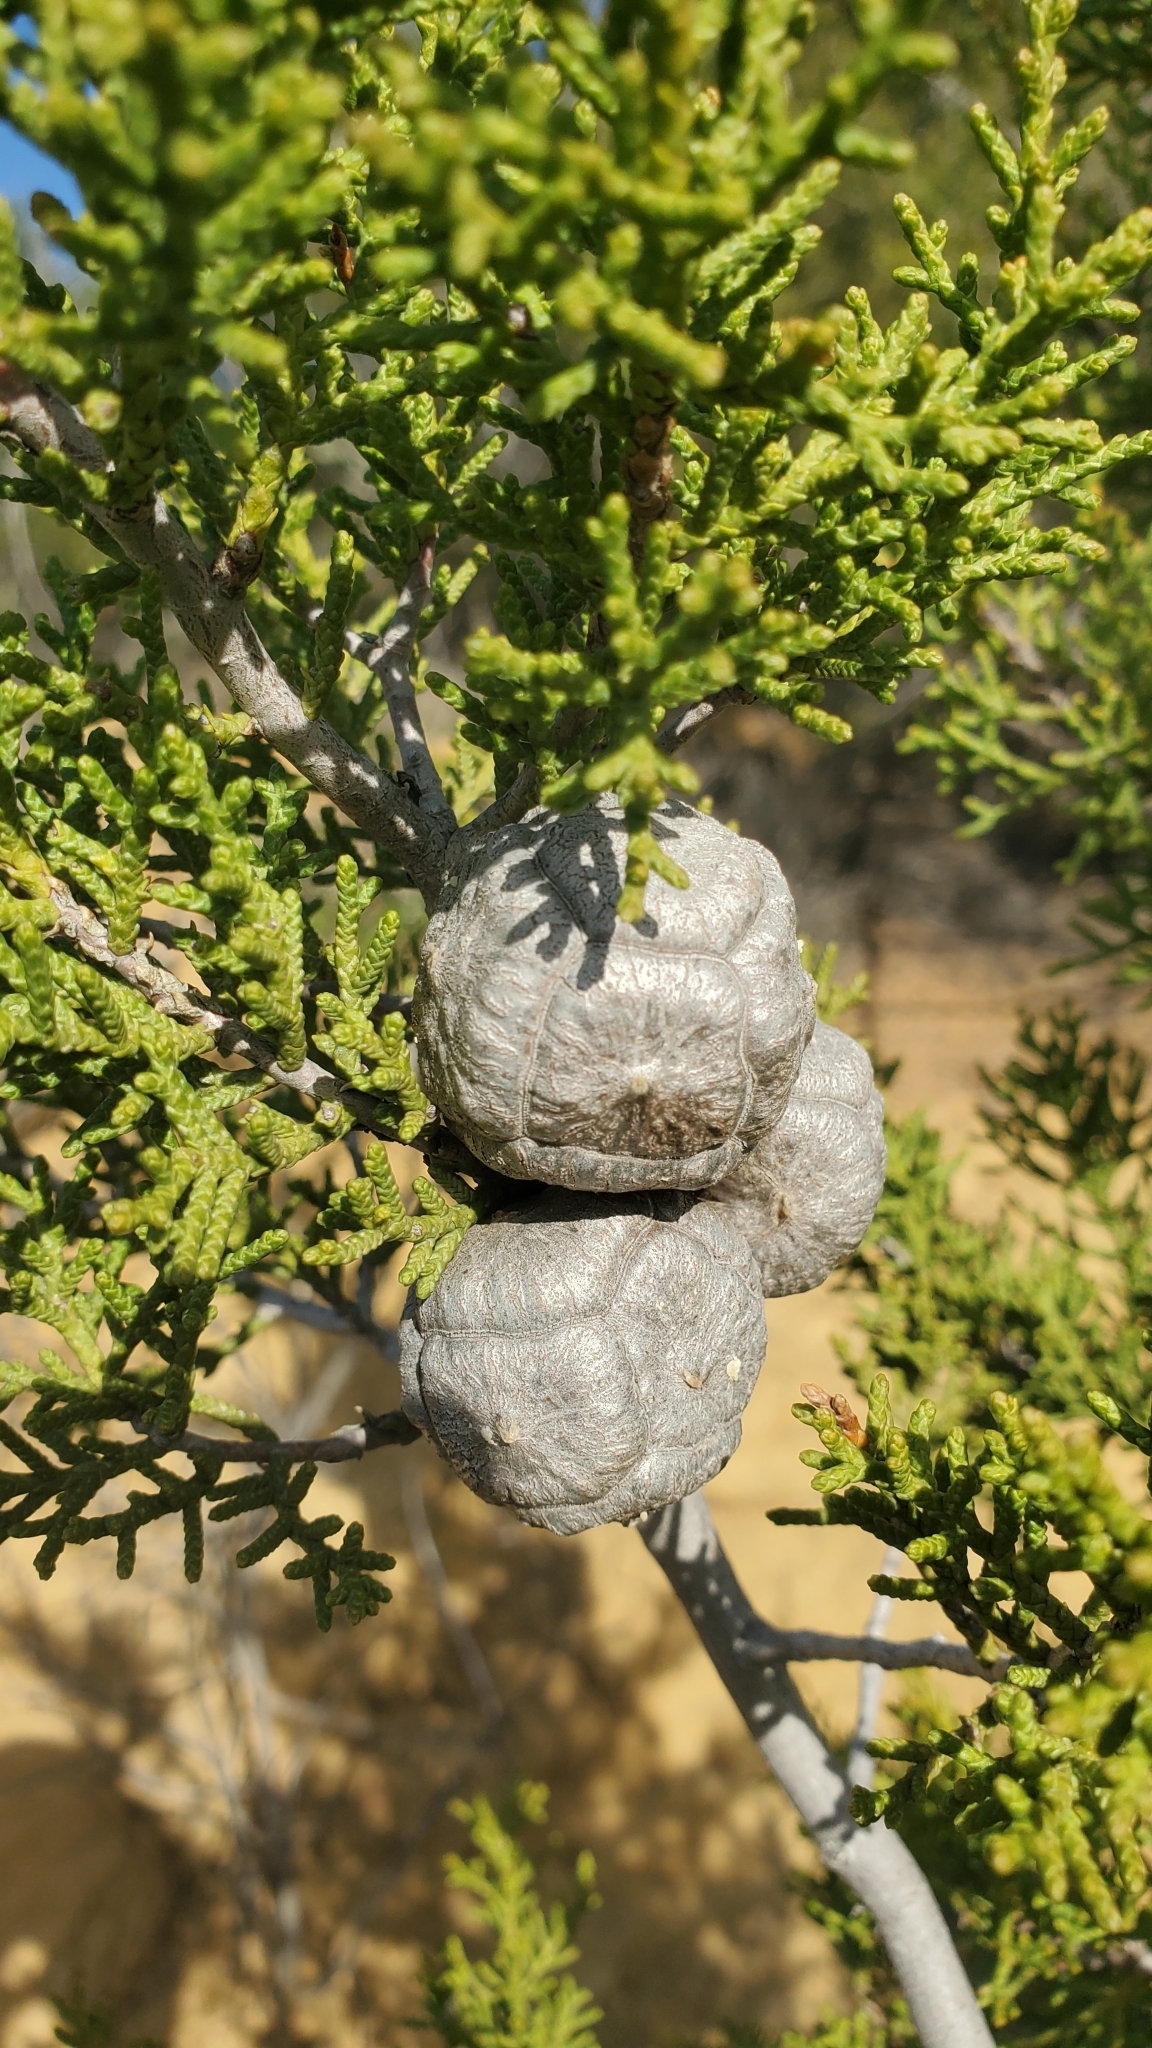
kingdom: Plantae
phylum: Tracheophyta
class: Pinopsida
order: Pinales
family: Cupressaceae
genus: Cupressus
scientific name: Cupressus guadalupensis
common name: Forbes cypress
